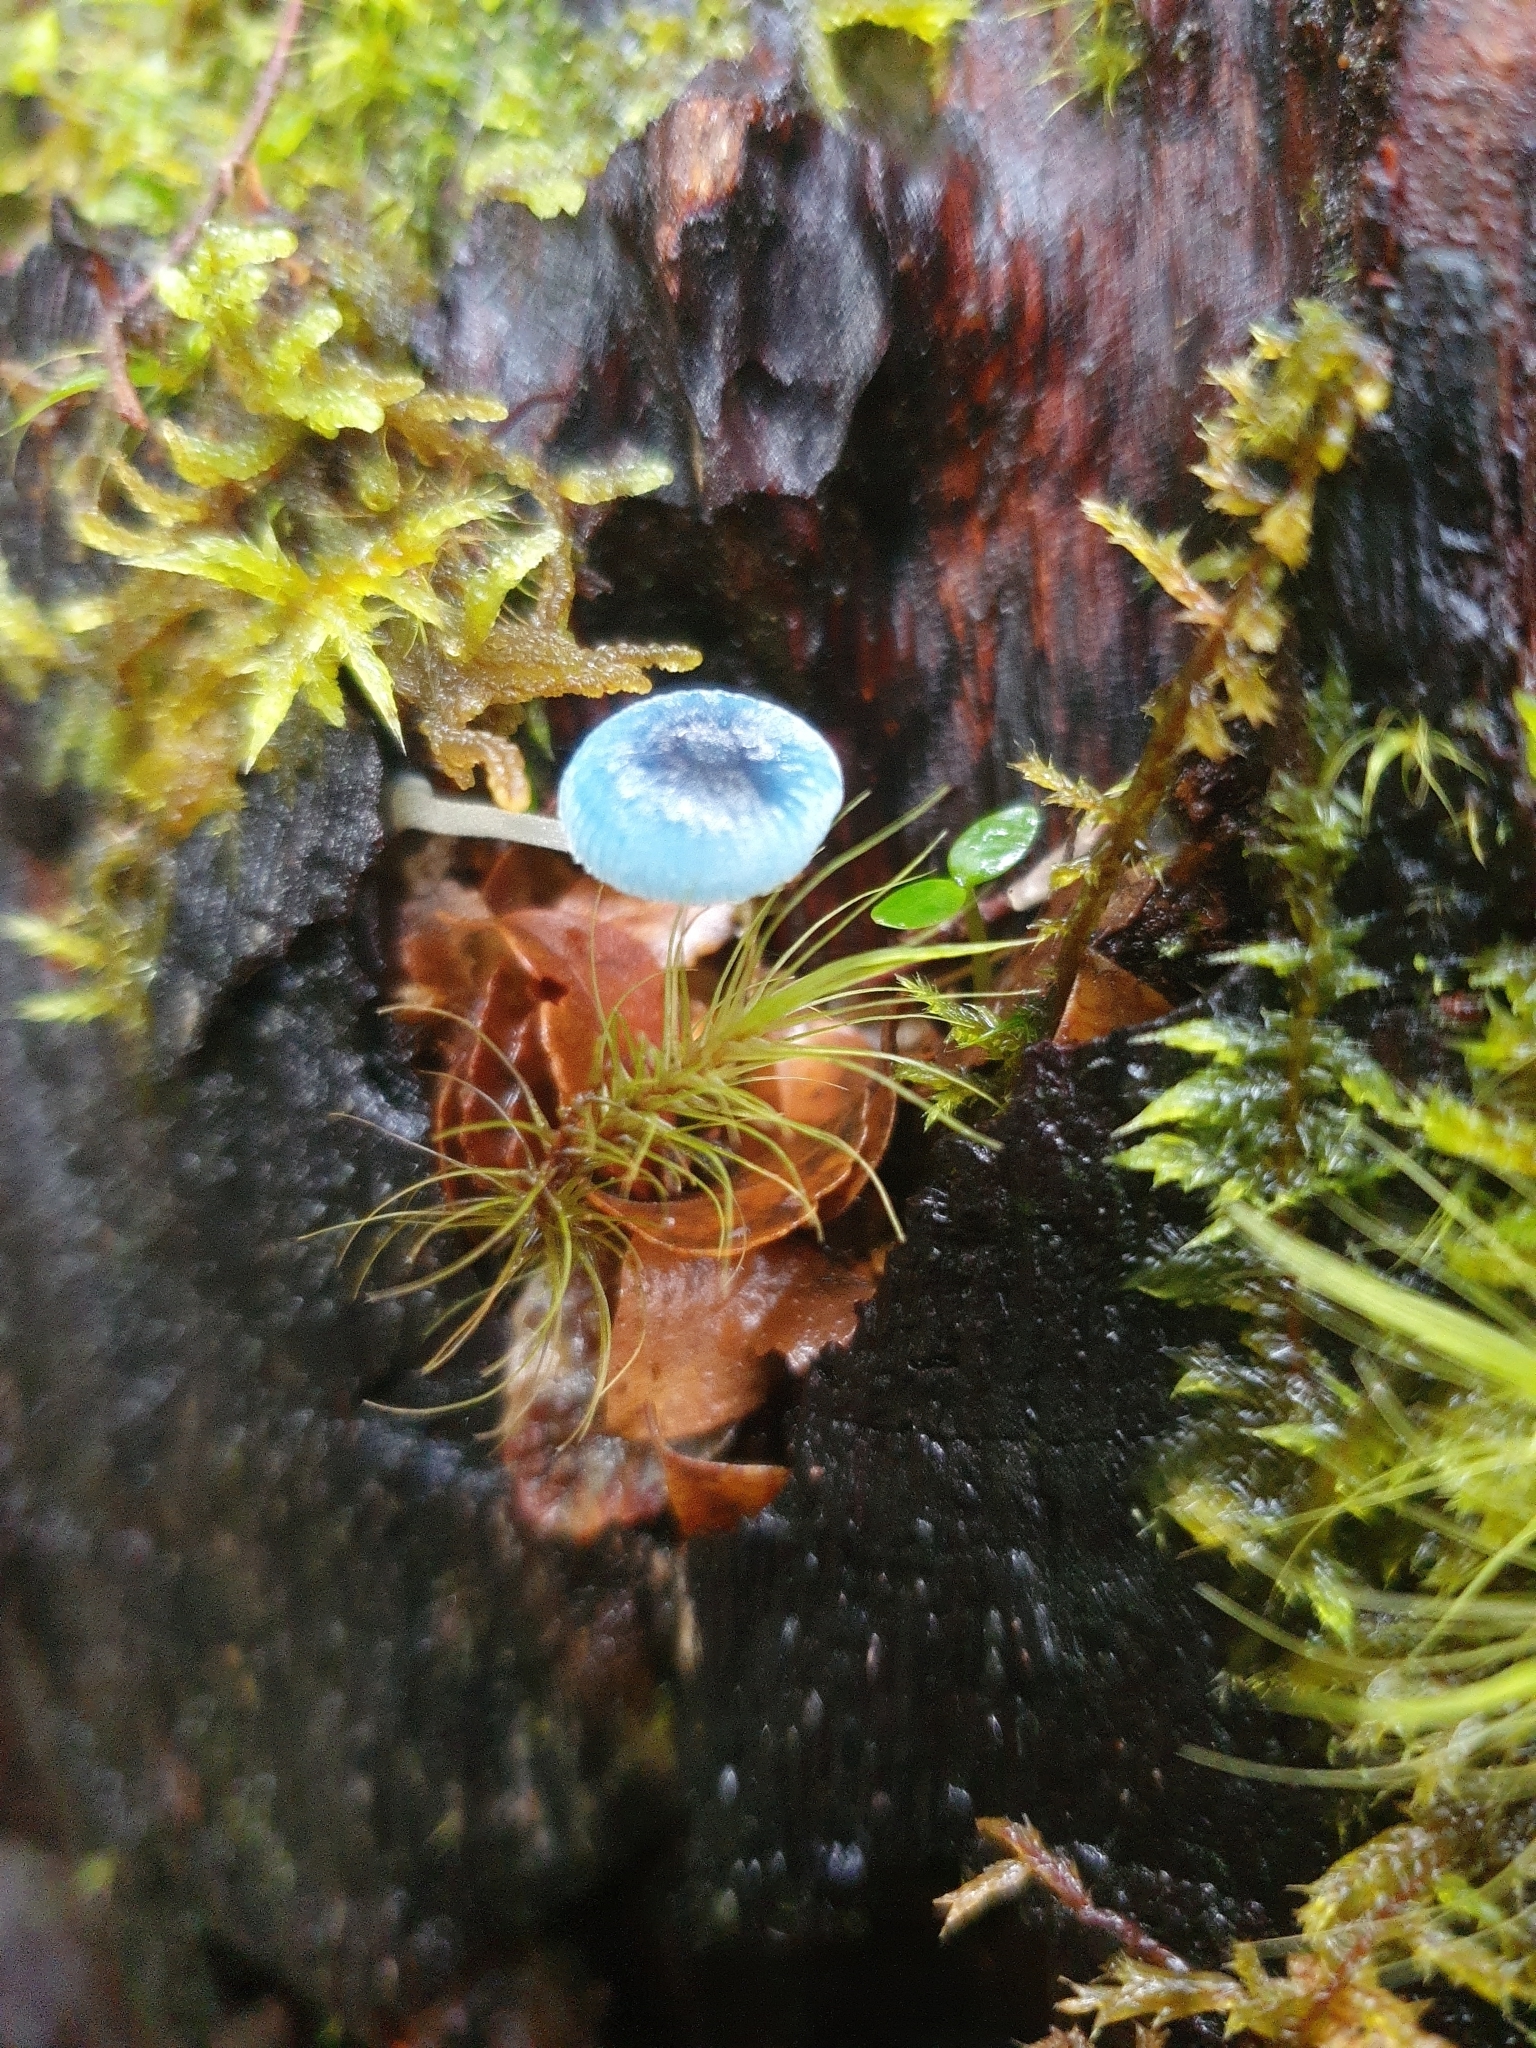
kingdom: Fungi
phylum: Basidiomycota
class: Agaricomycetes
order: Agaricales
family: Mycenaceae
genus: Mycena
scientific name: Mycena interrupta
